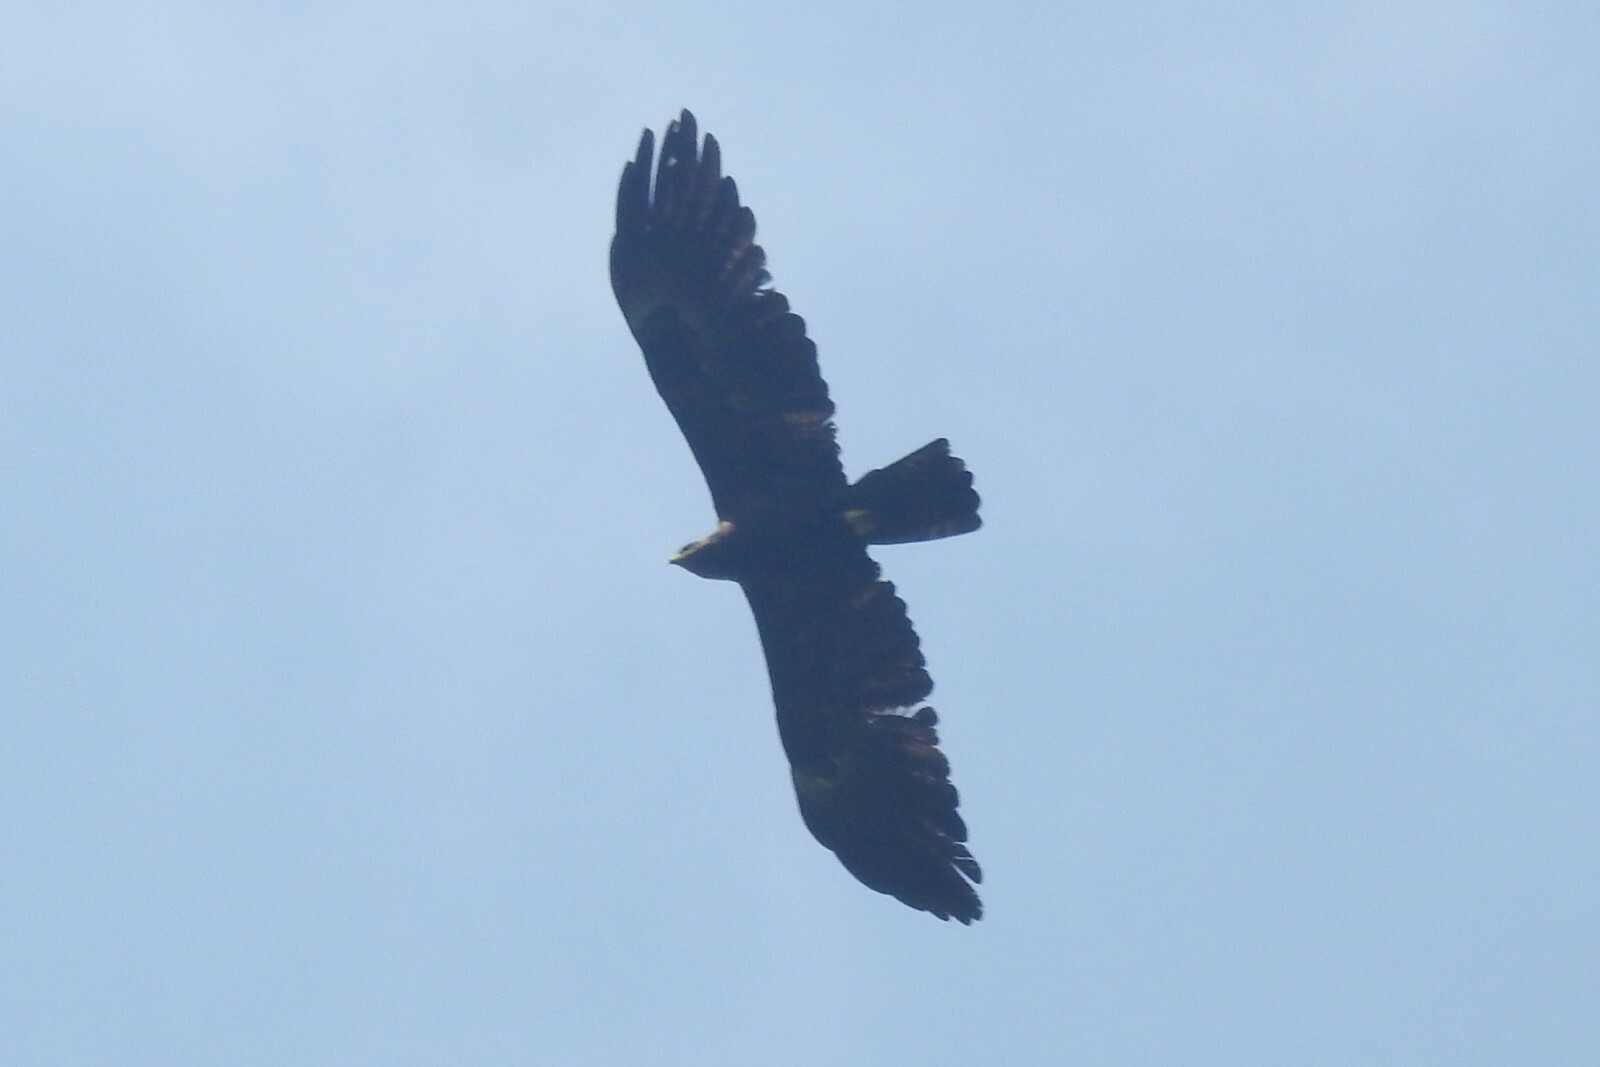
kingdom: Animalia
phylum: Chordata
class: Aves
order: Accipitriformes
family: Accipitridae
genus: Ictinaetus
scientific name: Ictinaetus malayensis
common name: Black eagle
